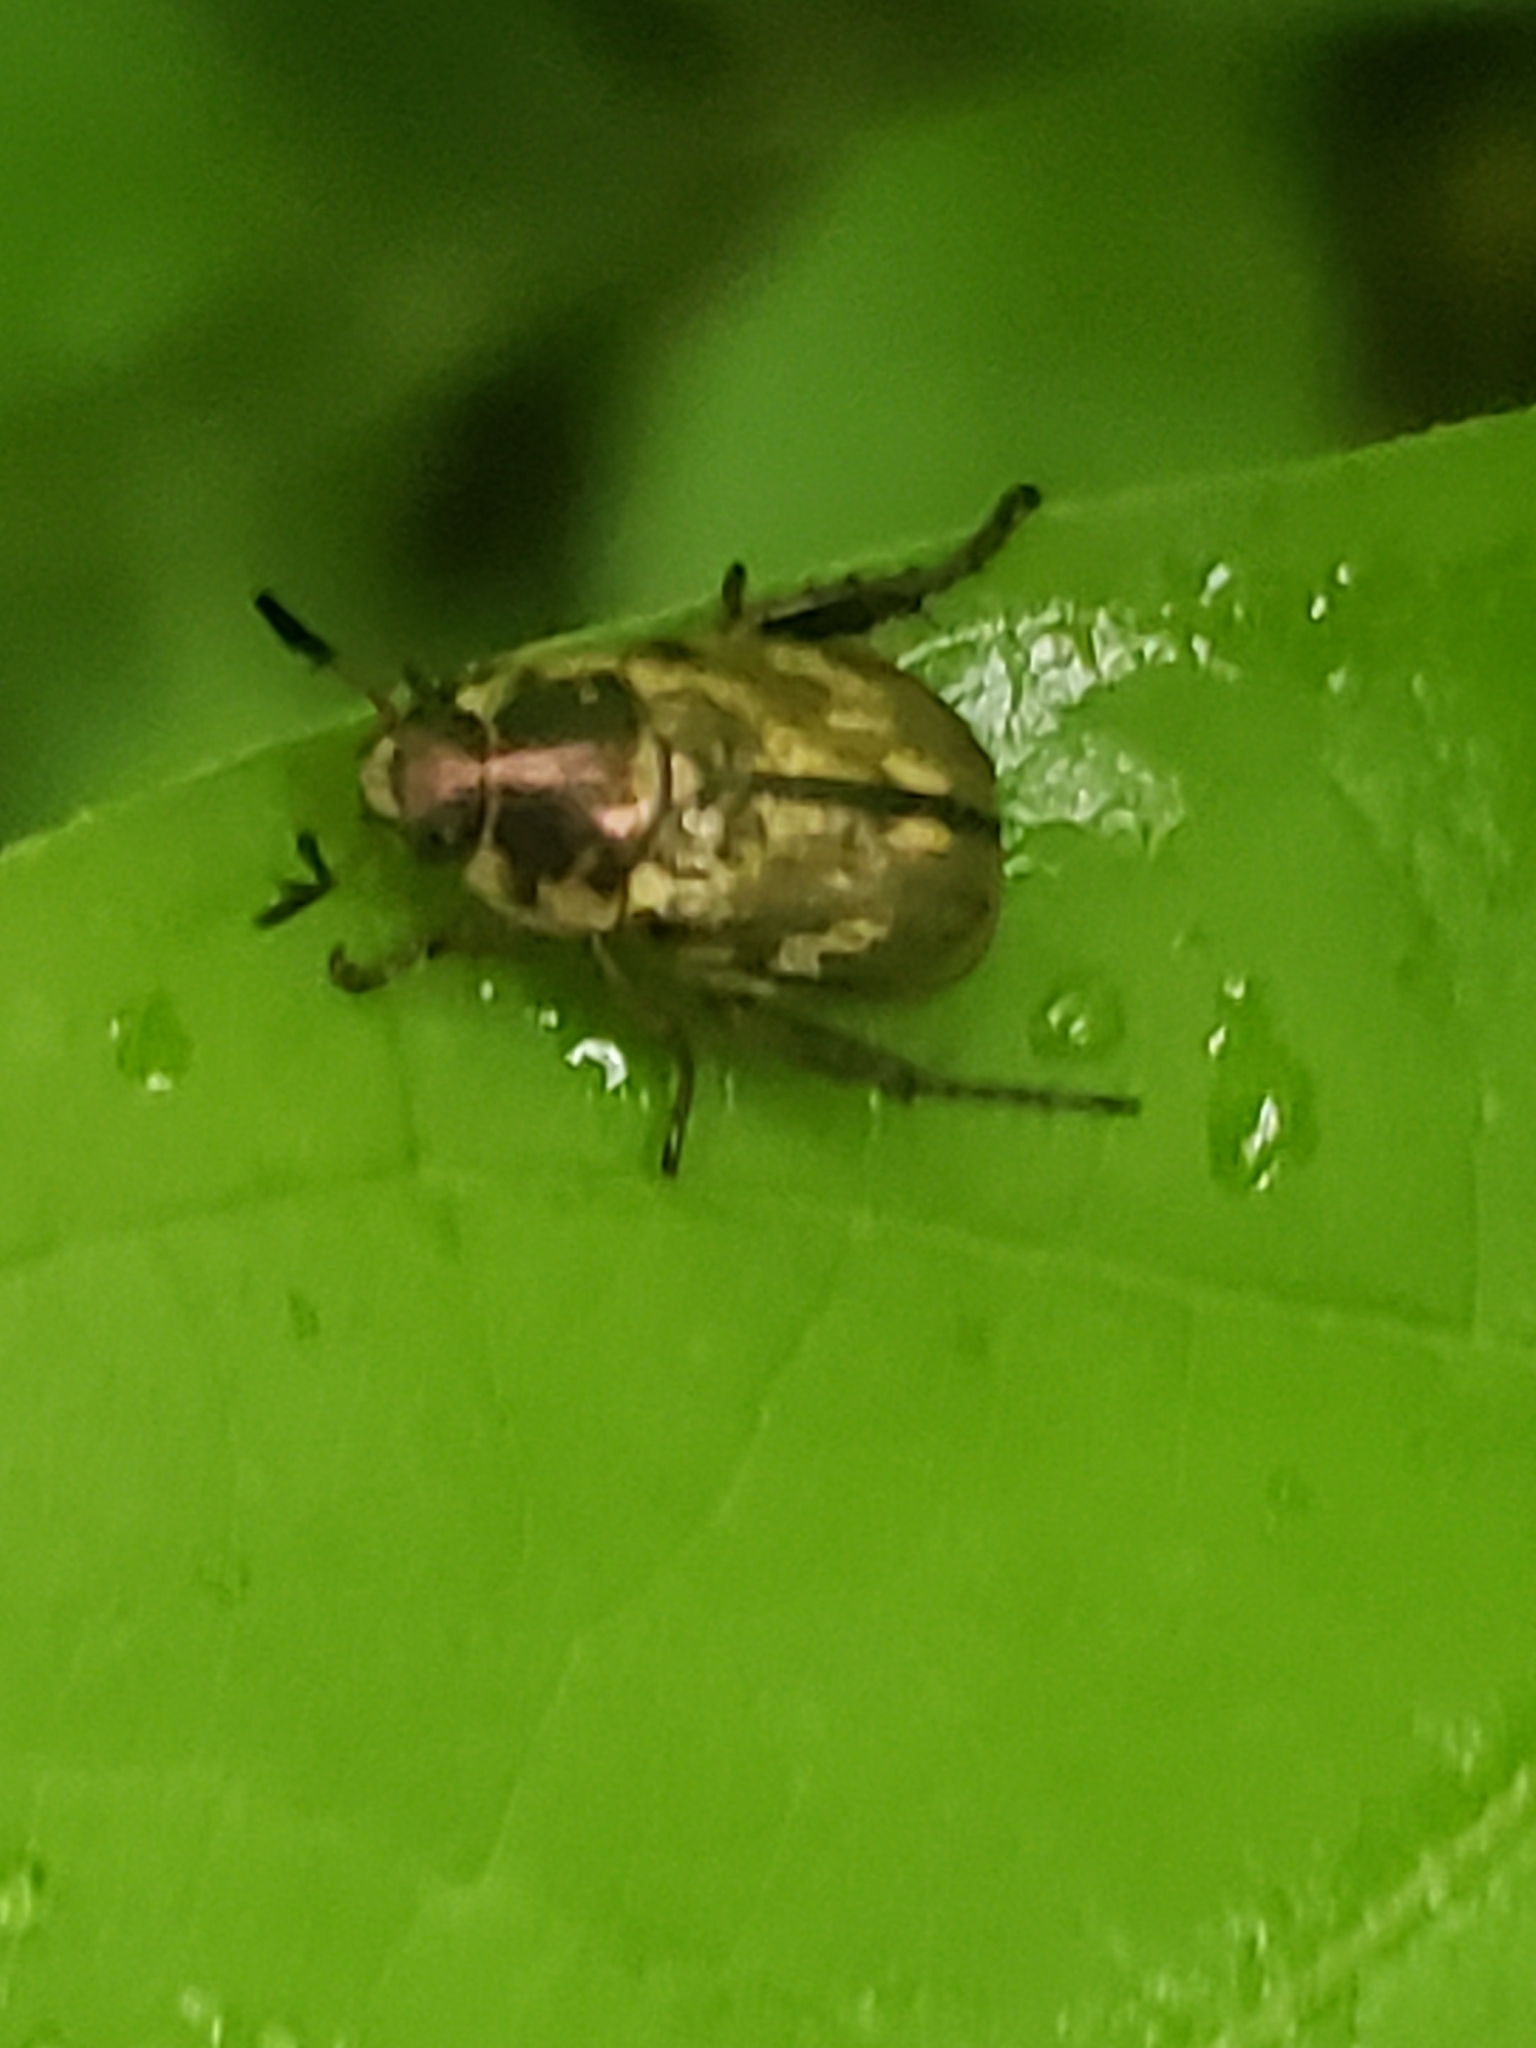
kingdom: Animalia
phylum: Arthropoda
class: Insecta
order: Coleoptera
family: Scarabaeidae
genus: Exomala
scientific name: Exomala orientalis
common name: Oriental beetle
